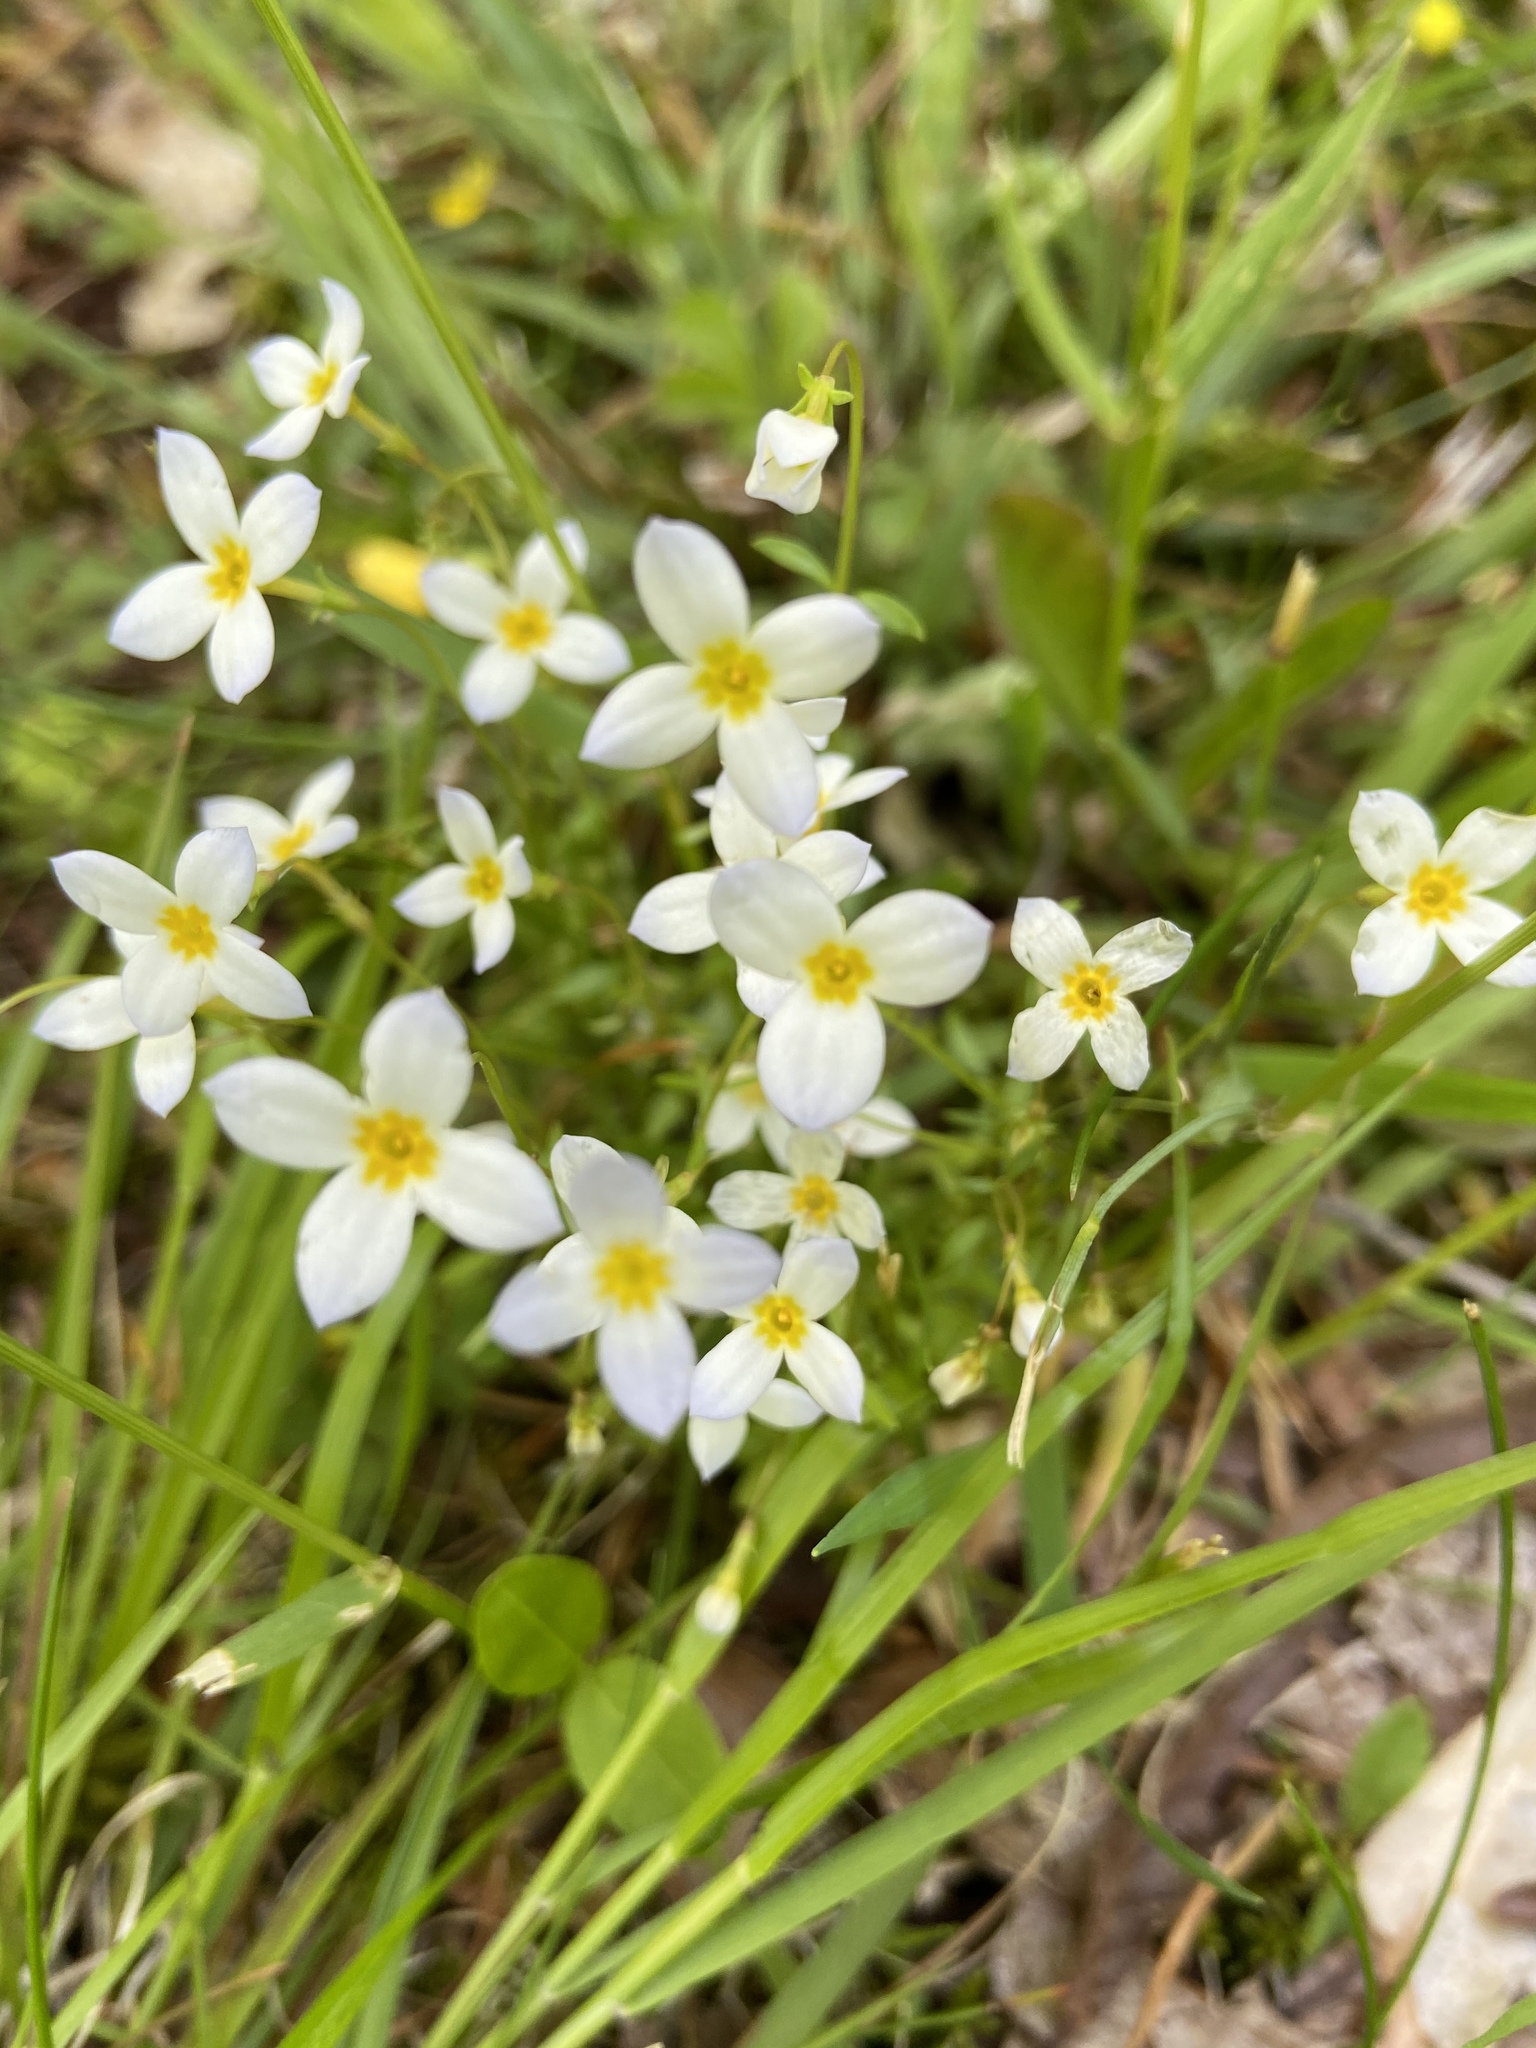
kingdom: Plantae
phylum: Tracheophyta
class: Magnoliopsida
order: Gentianales
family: Rubiaceae
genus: Houstonia
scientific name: Houstonia caerulea
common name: Bluets
